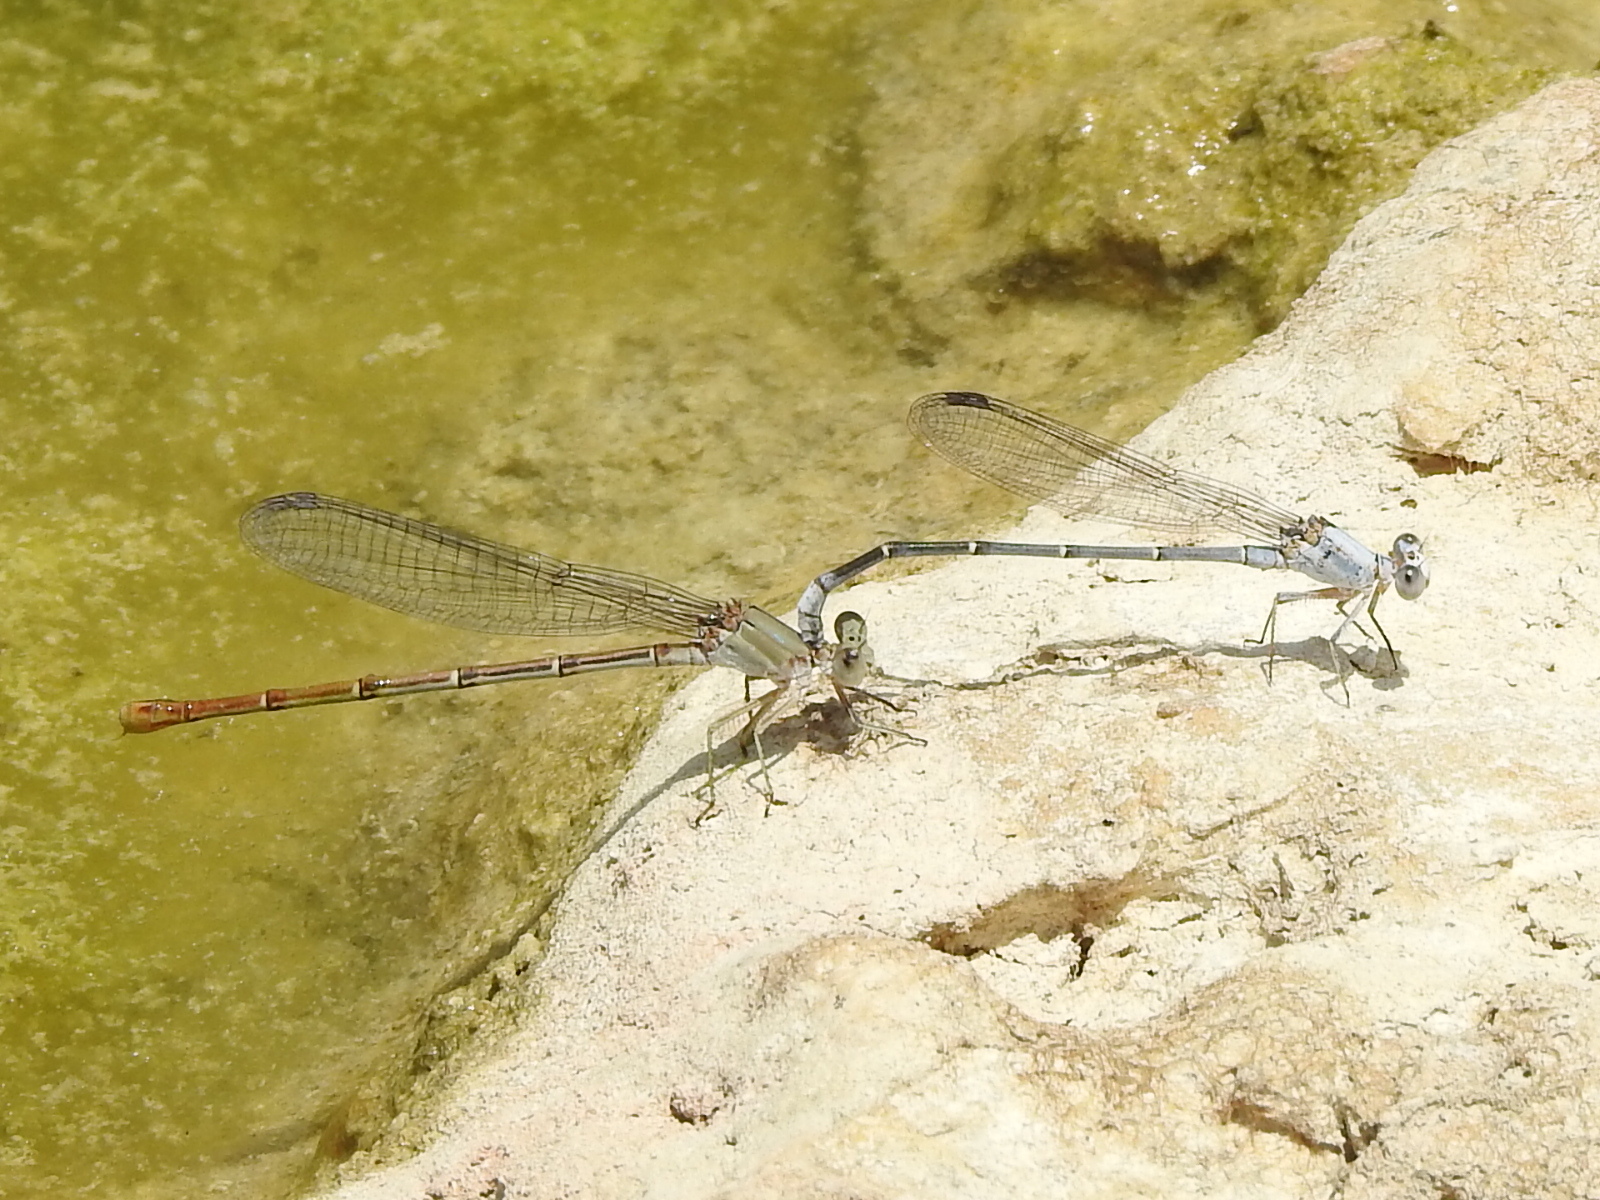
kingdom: Animalia
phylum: Arthropoda
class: Insecta
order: Odonata
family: Coenagrionidae
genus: Argia
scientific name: Argia moesta
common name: Powdered dancer
